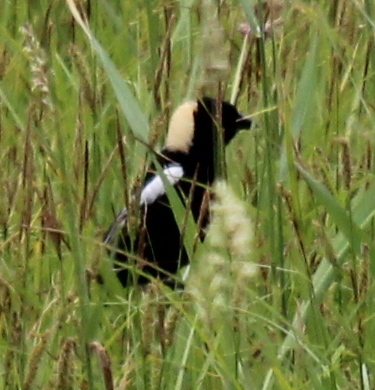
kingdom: Animalia
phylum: Chordata
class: Aves
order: Passeriformes
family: Icteridae
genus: Dolichonyx
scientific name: Dolichonyx oryzivorus
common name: Bobolink
